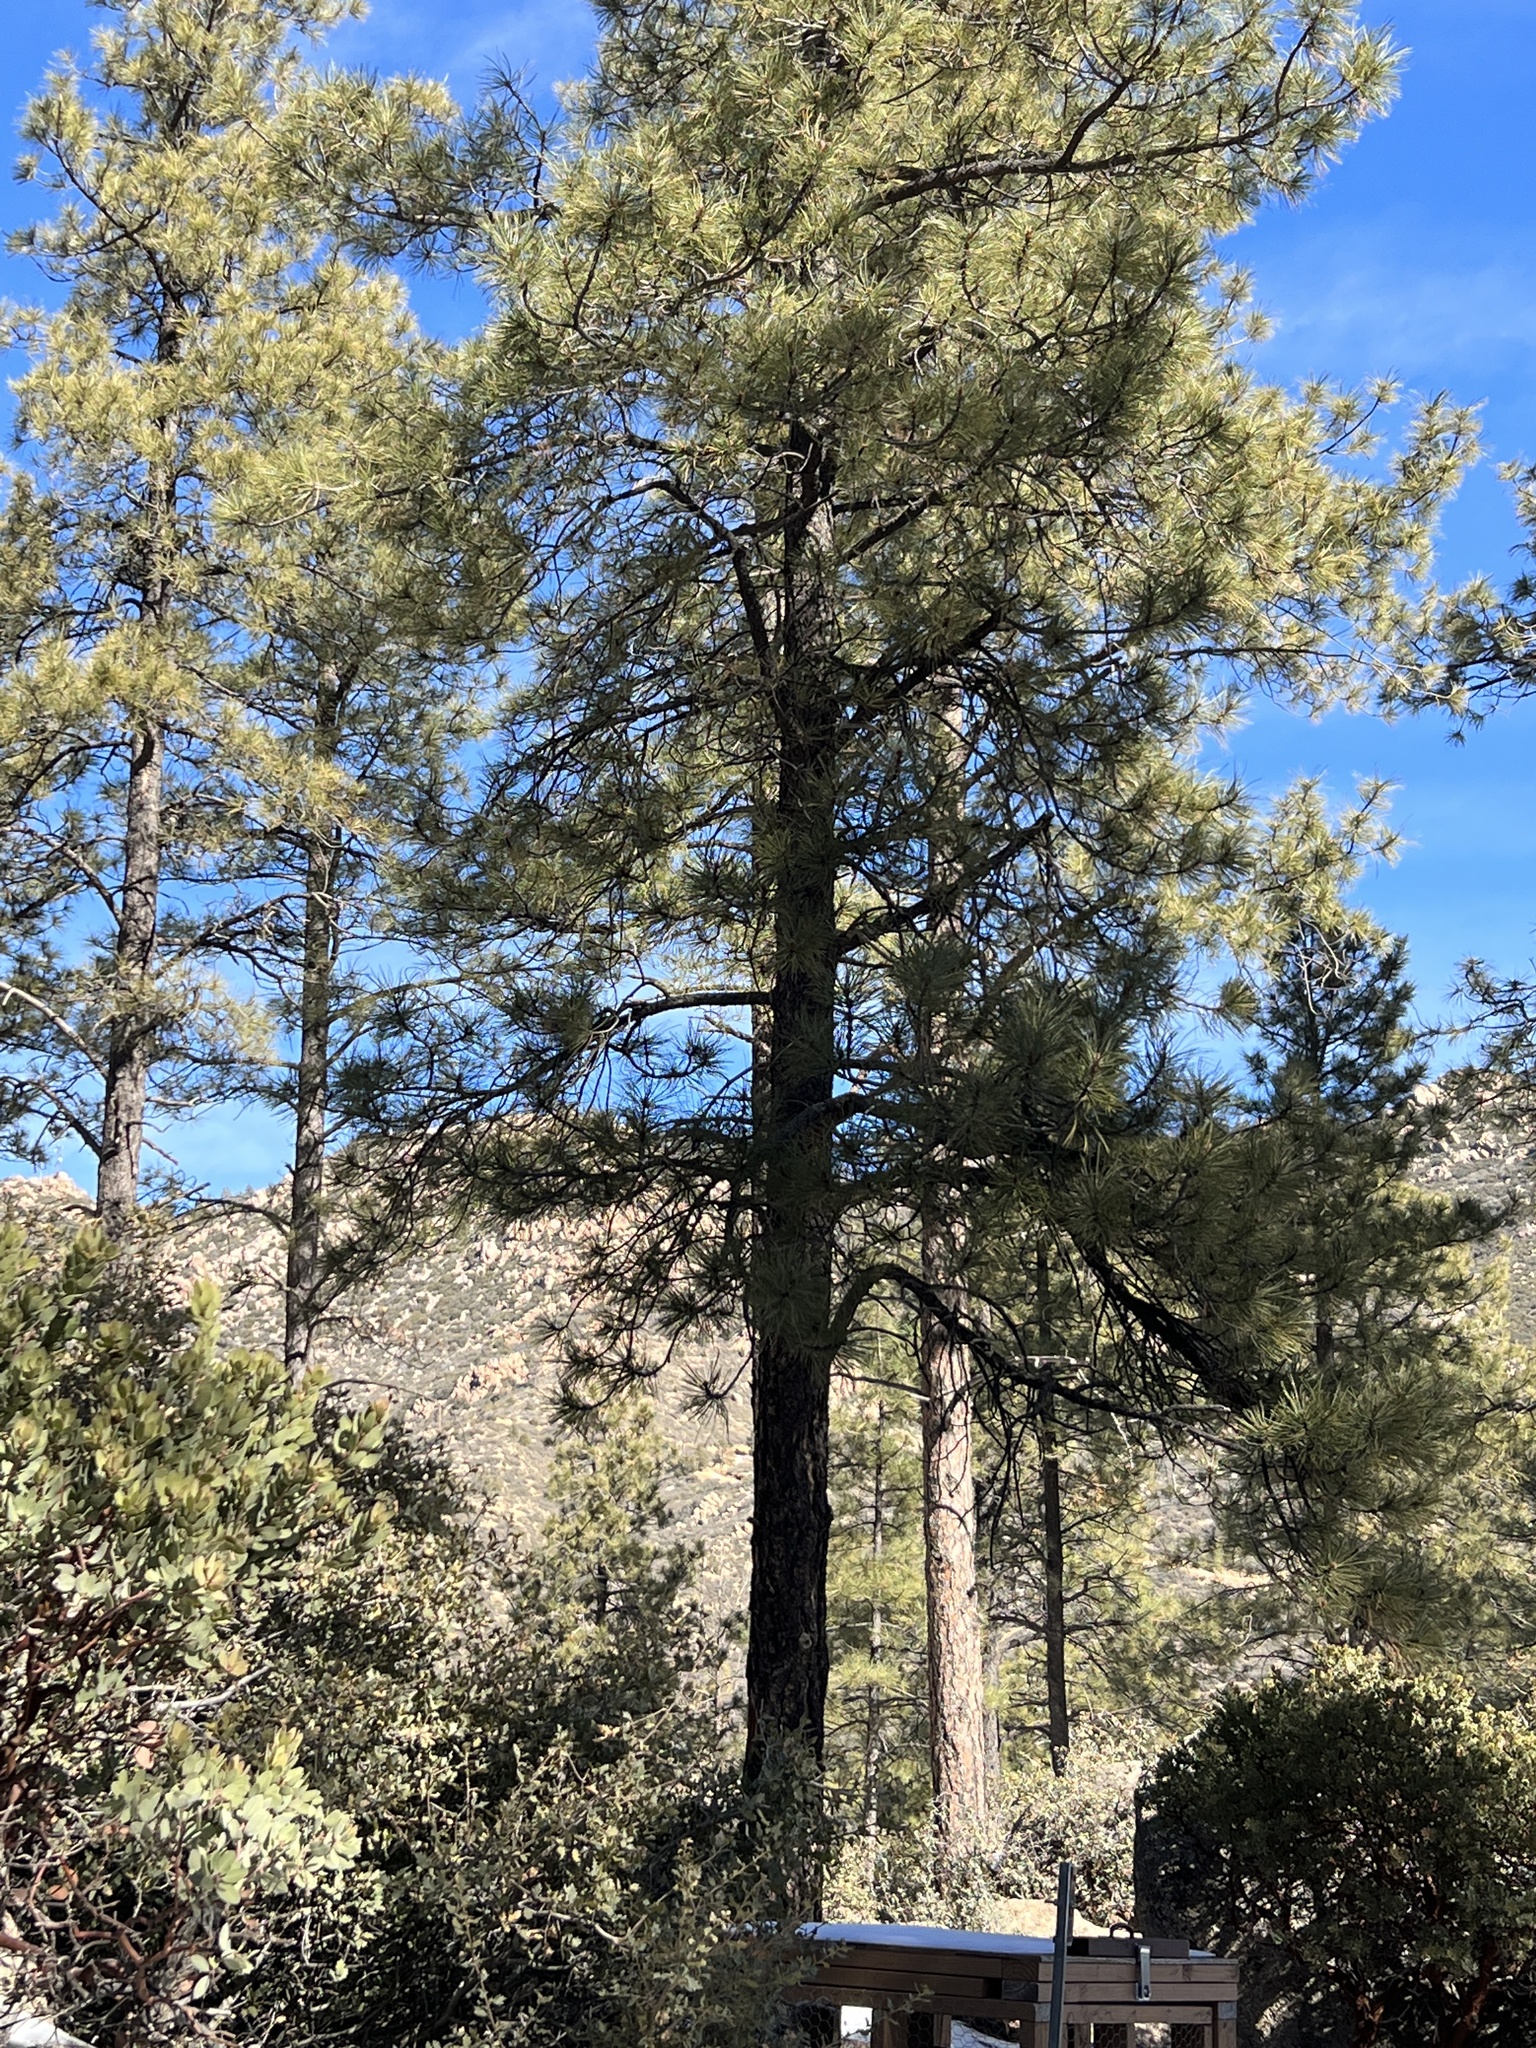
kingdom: Plantae
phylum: Tracheophyta
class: Pinopsida
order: Pinales
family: Pinaceae
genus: Pinus
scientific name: Pinus ponderosa
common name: Western yellow-pine
